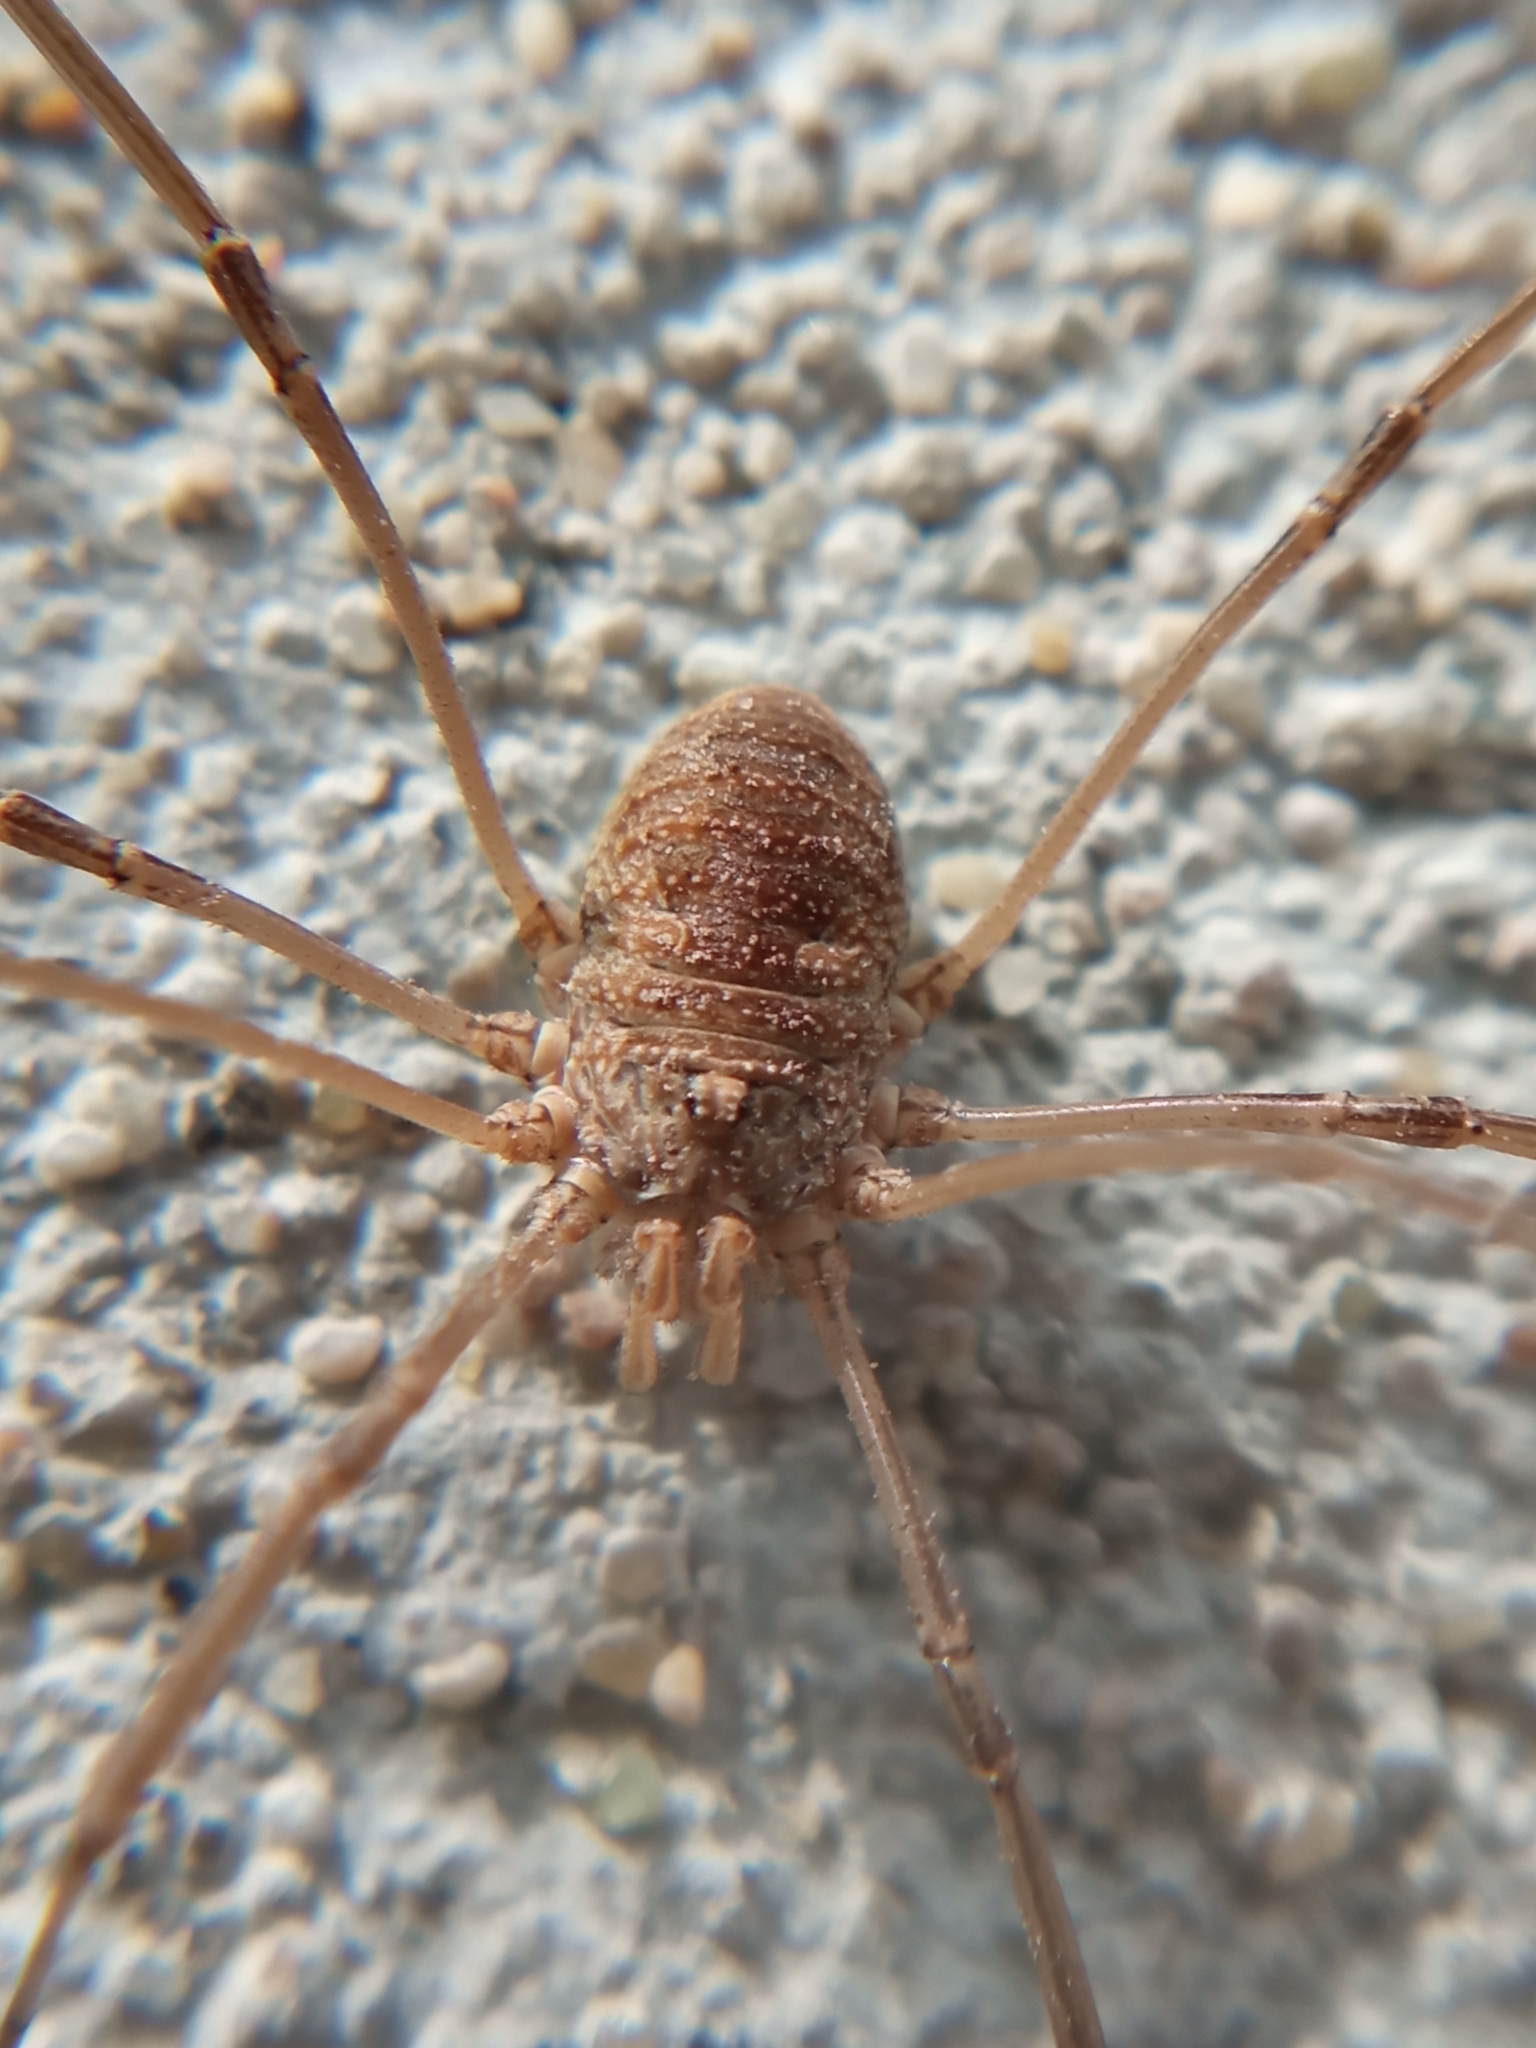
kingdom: Animalia
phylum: Arthropoda
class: Arachnida
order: Opiliones
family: Phalangiidae
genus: Phalangium
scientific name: Phalangium opilio
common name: Daddy longleg
